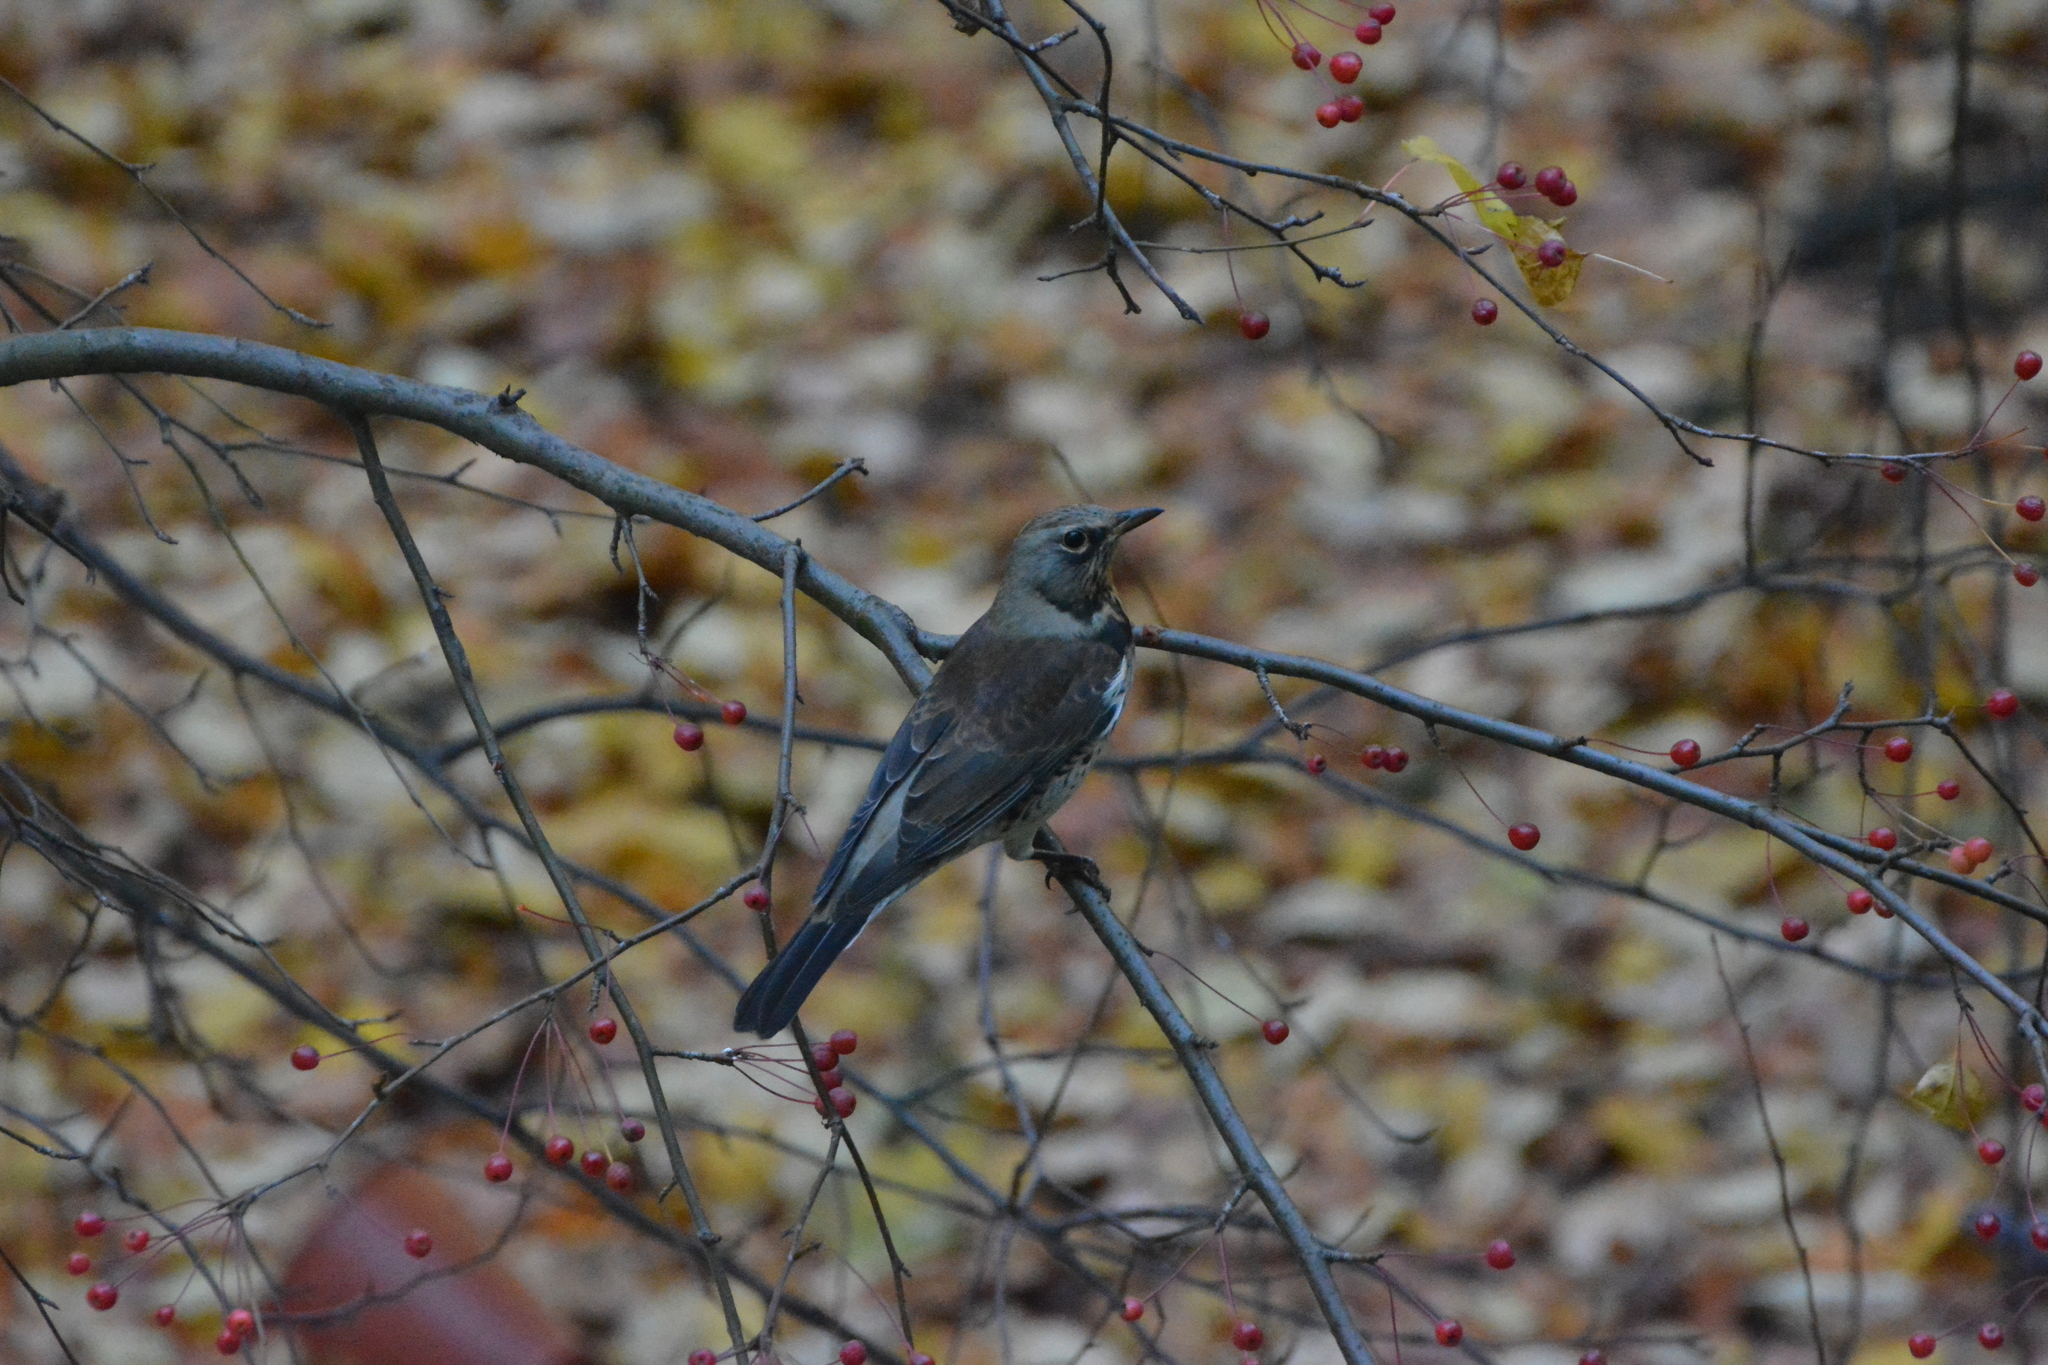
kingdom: Animalia
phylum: Chordata
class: Aves
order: Passeriformes
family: Turdidae
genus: Turdus
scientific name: Turdus pilaris
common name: Fieldfare
